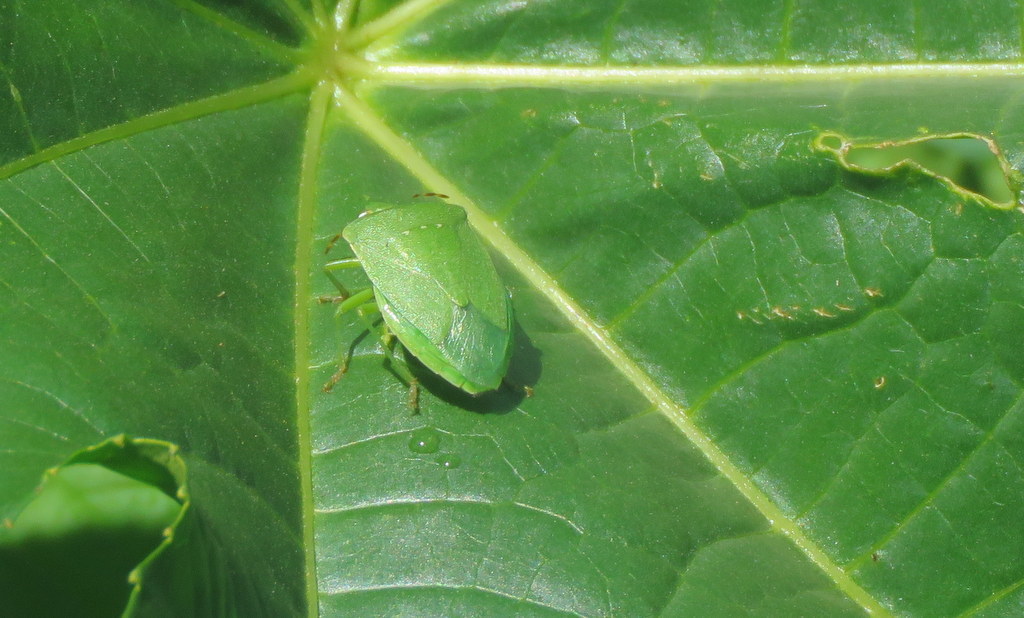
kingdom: Animalia
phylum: Arthropoda
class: Insecta
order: Hemiptera
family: Pentatomidae
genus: Nezara
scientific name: Nezara viridula
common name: Southern green stink bug
